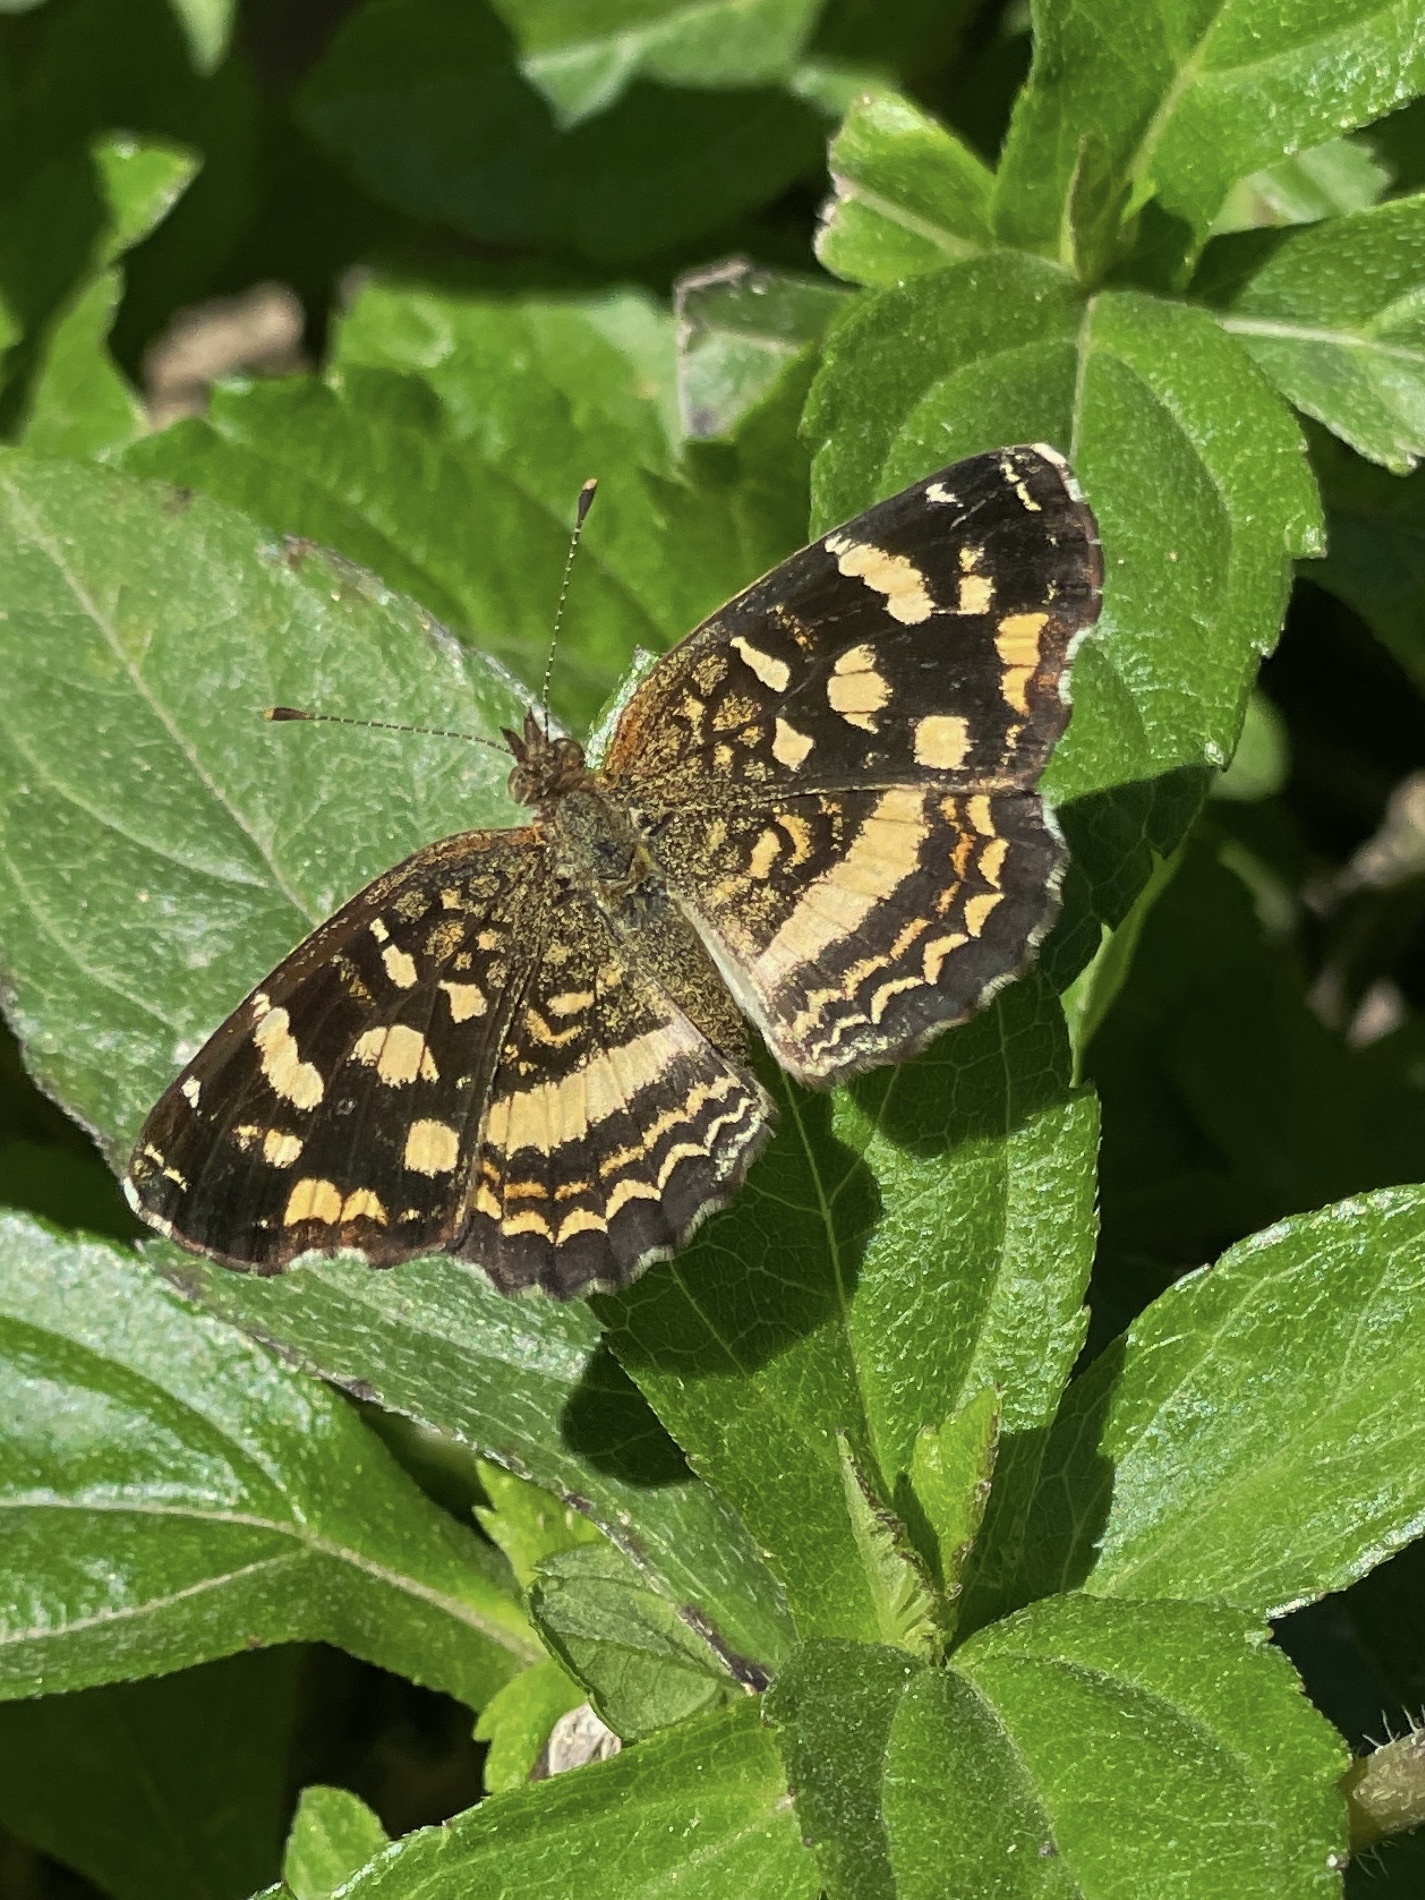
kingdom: Animalia
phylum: Arthropoda
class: Insecta
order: Lepidoptera
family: Nymphalidae
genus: Anthanassa
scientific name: Anthanassa tulcis
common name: Pale-banded crescent
